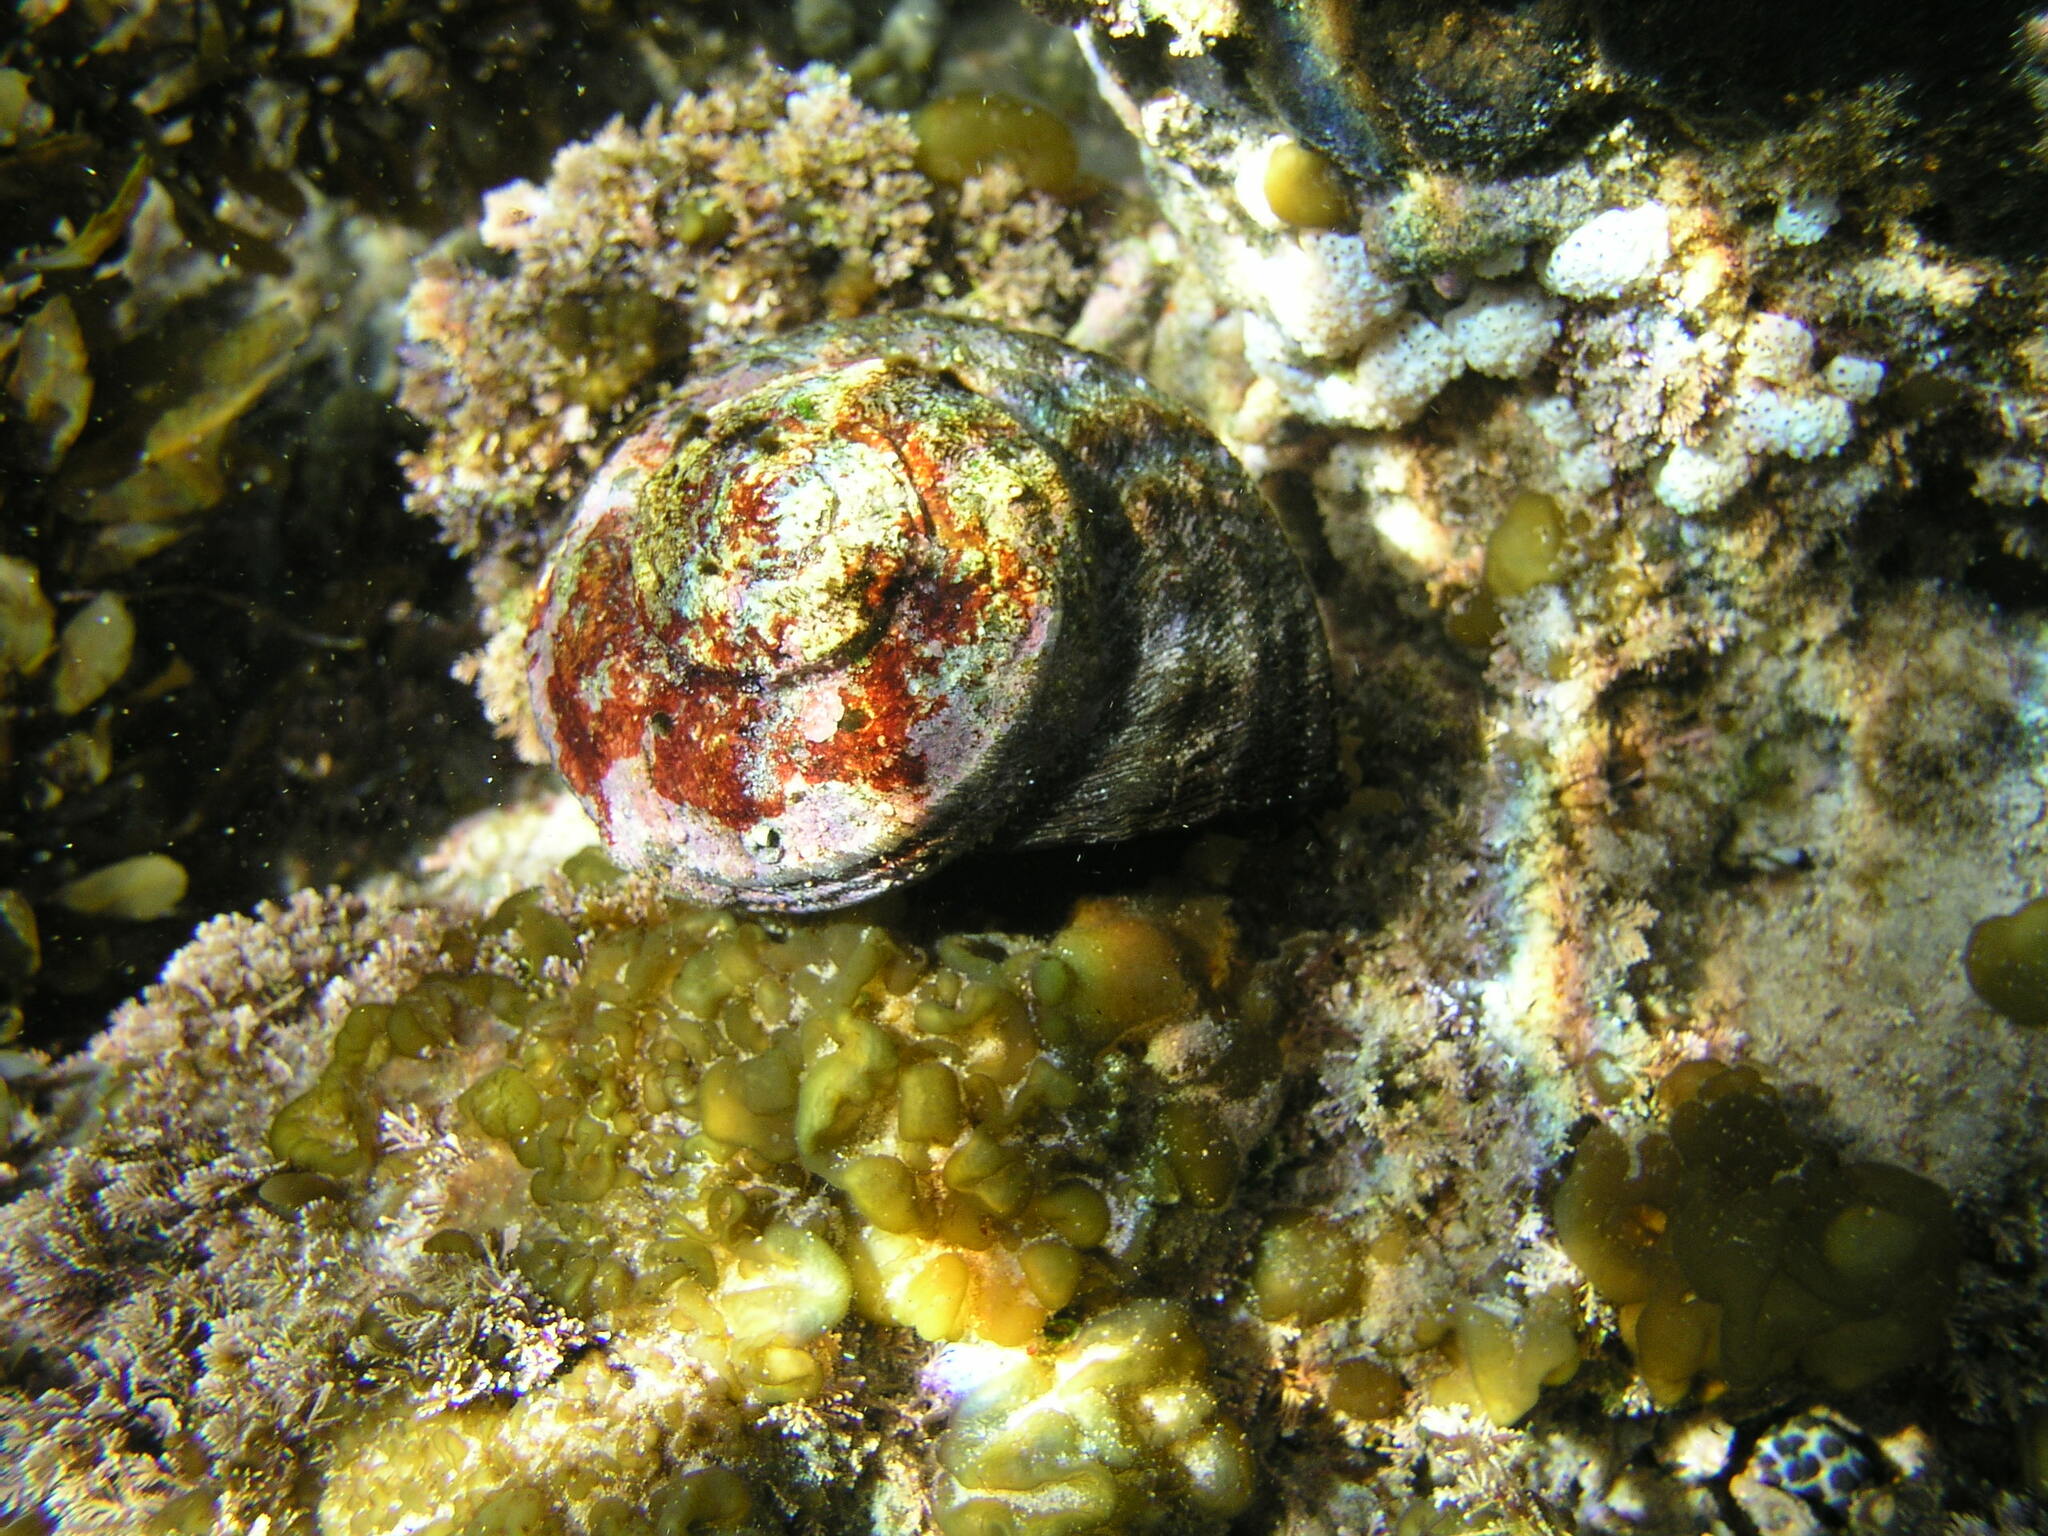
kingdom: Animalia
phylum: Mollusca
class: Gastropoda
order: Trochida
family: Turbinidae
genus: Lunella
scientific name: Lunella torquata
